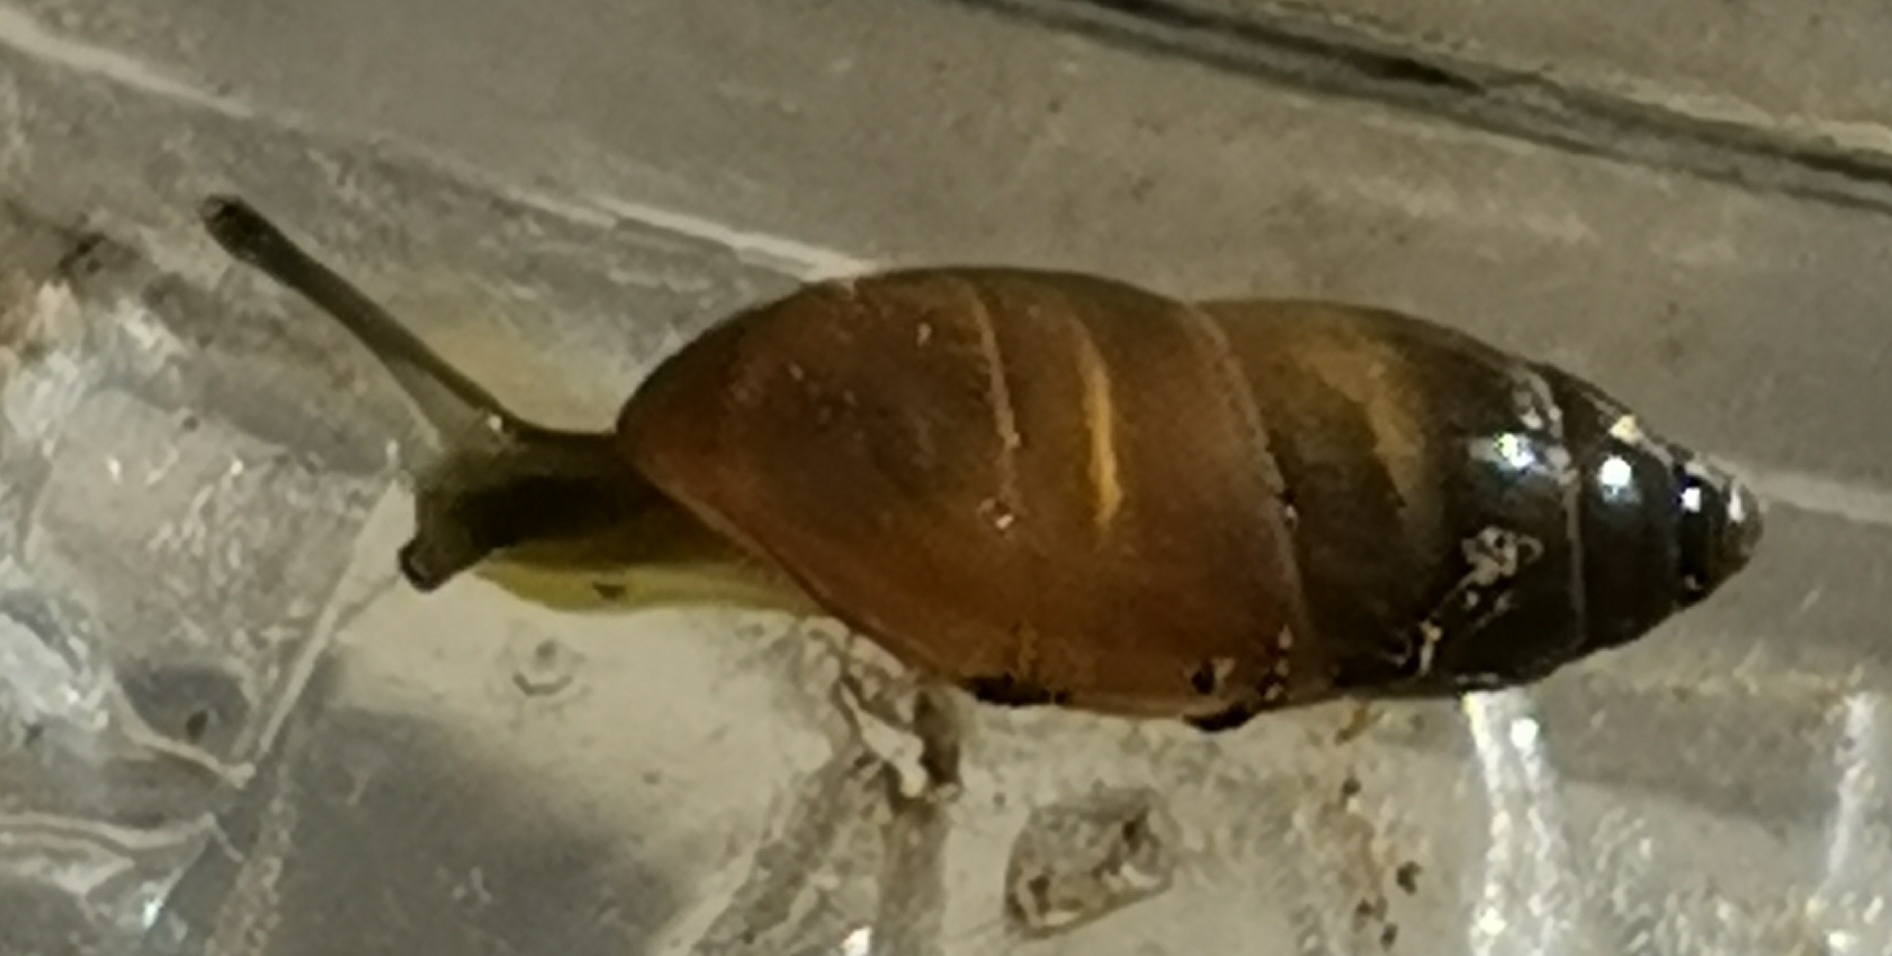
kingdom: Animalia
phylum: Mollusca
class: Gastropoda
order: Stylommatophora
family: Ferussaciidae
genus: Ferussacia
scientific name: Ferussacia folliculum
